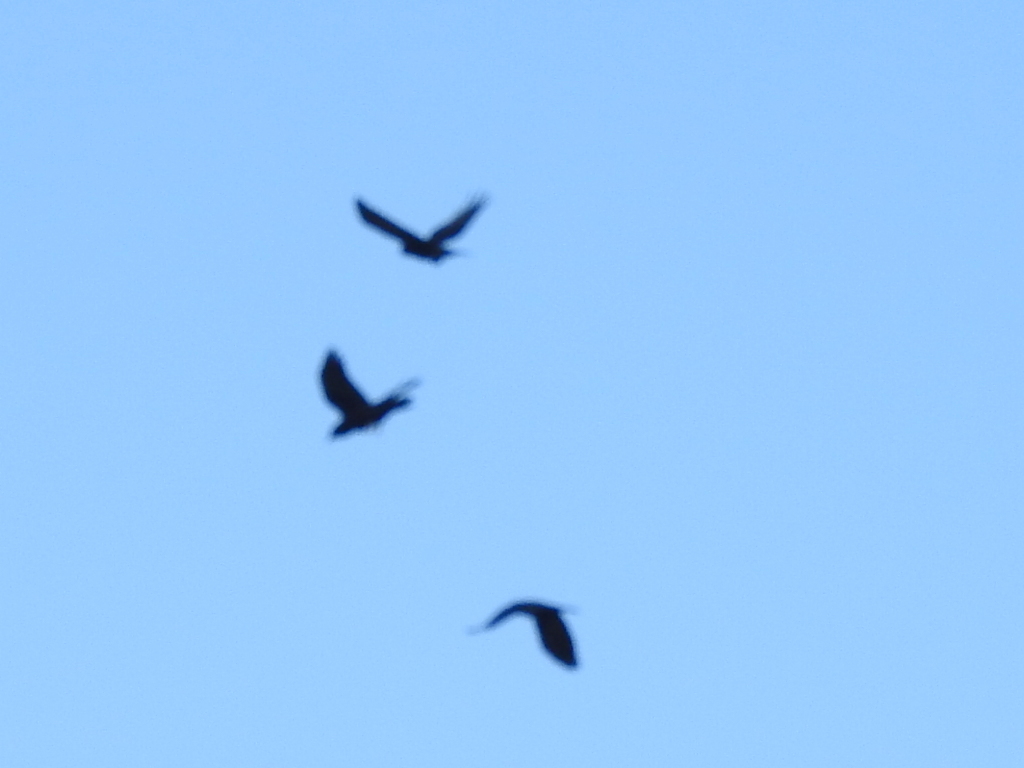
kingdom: Animalia
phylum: Chordata
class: Aves
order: Passeriformes
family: Corvidae
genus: Corvus
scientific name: Corvus brachyrhynchos
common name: American crow
